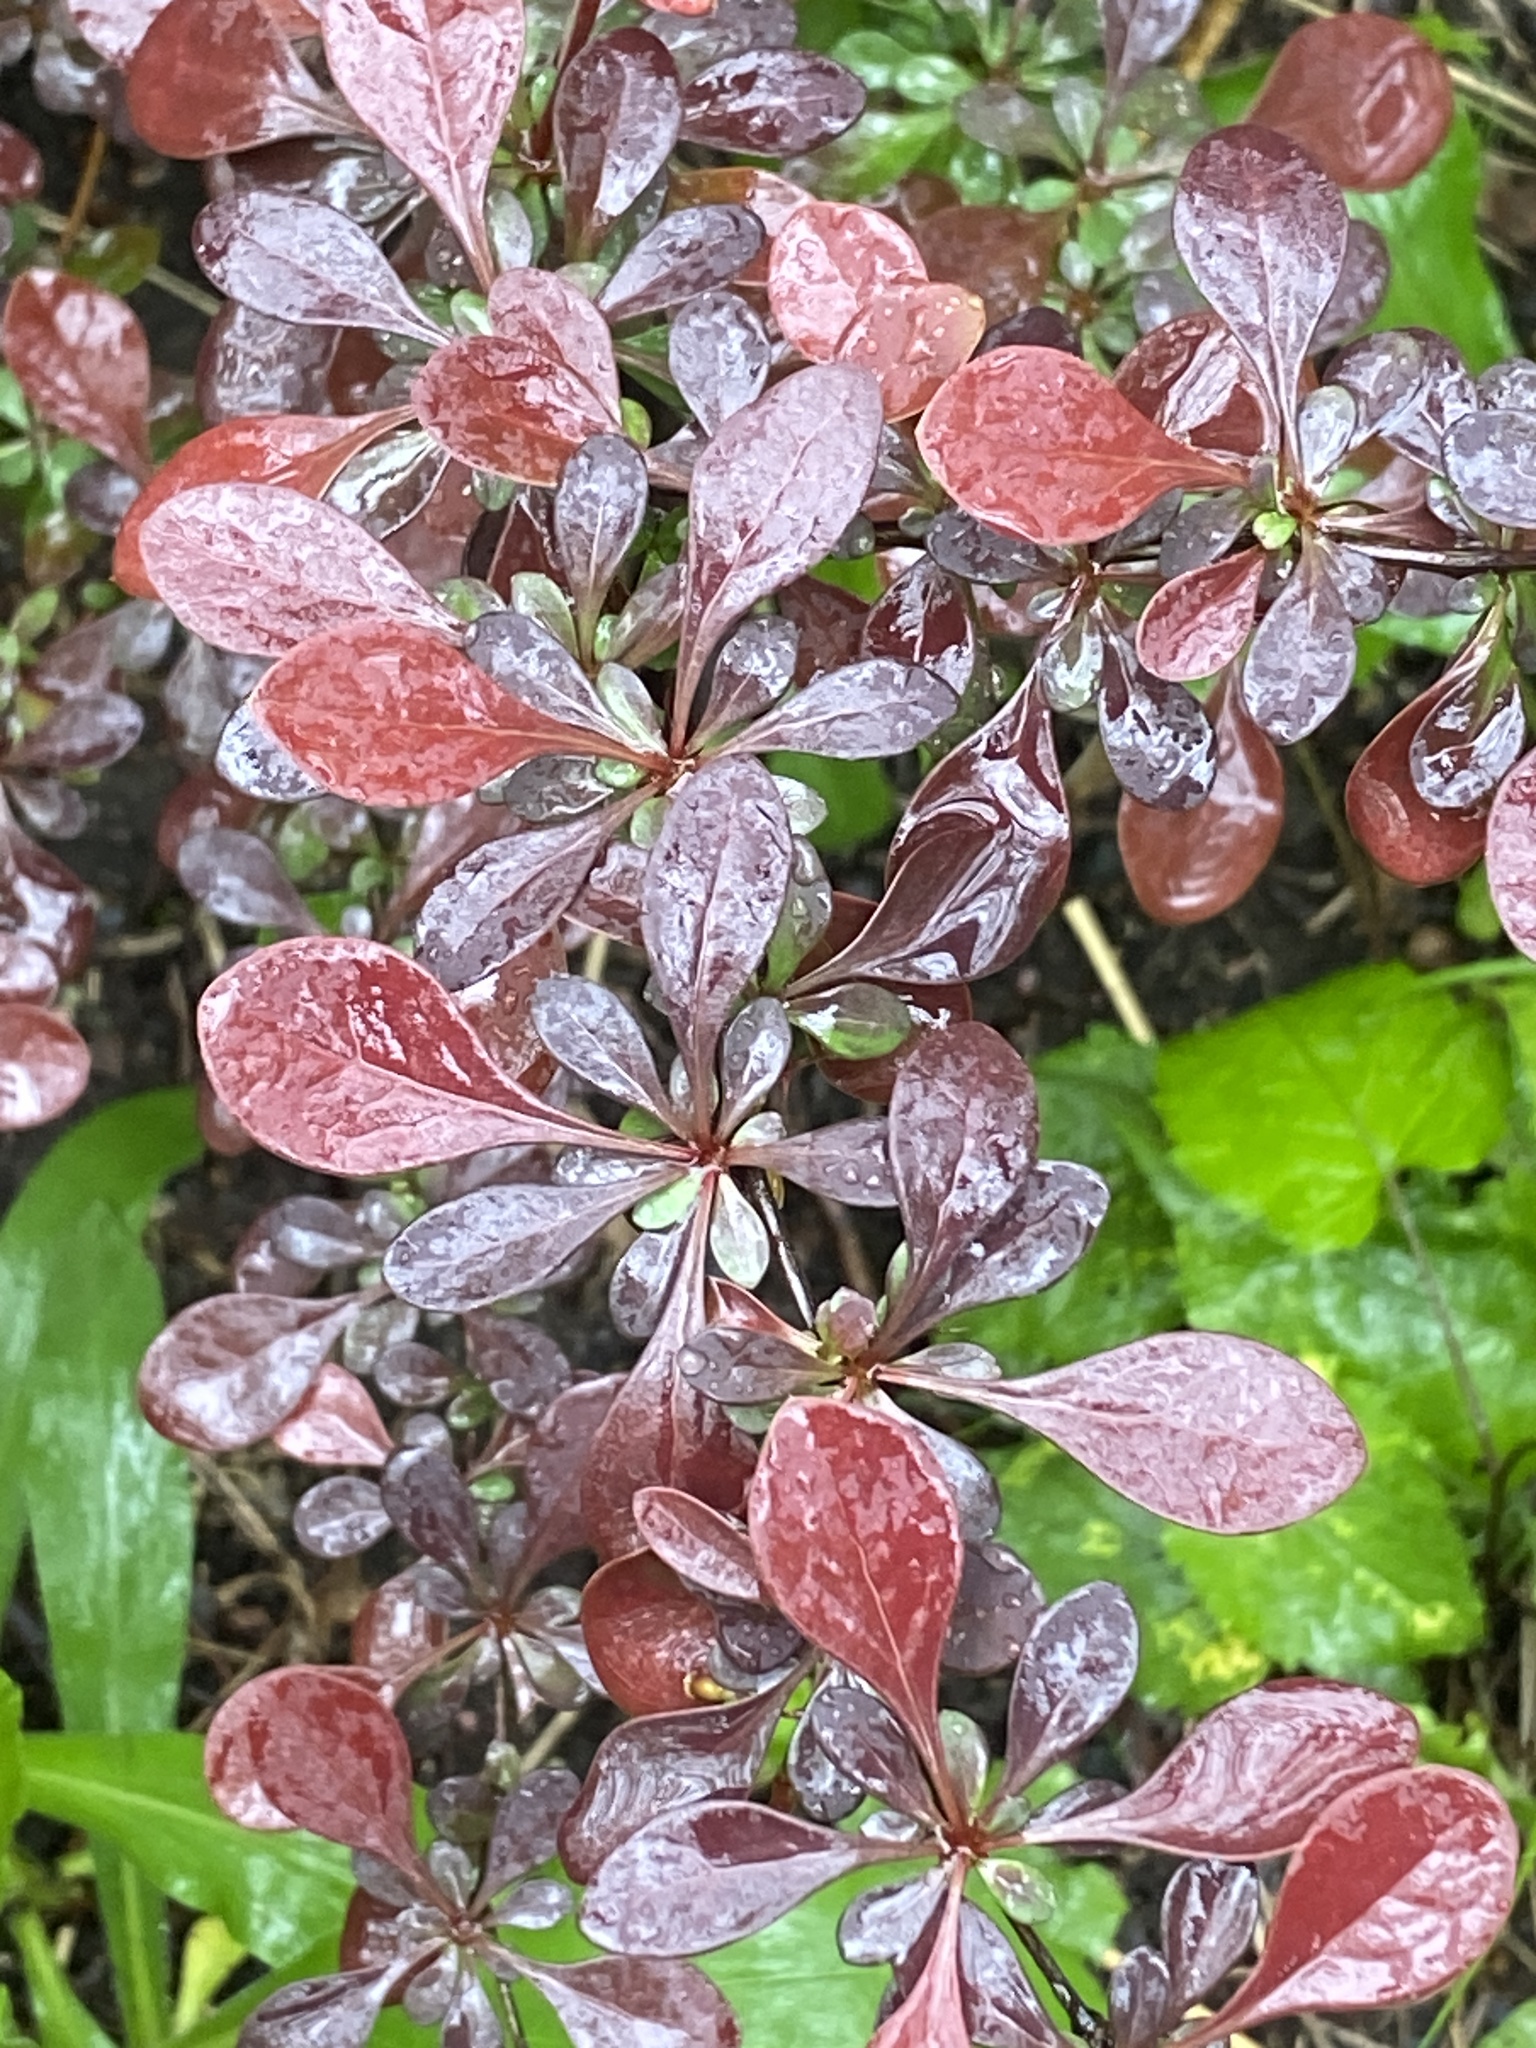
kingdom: Plantae
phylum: Tracheophyta
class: Magnoliopsida
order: Ranunculales
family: Berberidaceae
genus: Berberis
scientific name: Berberis thunbergii
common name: Japanese barberry
